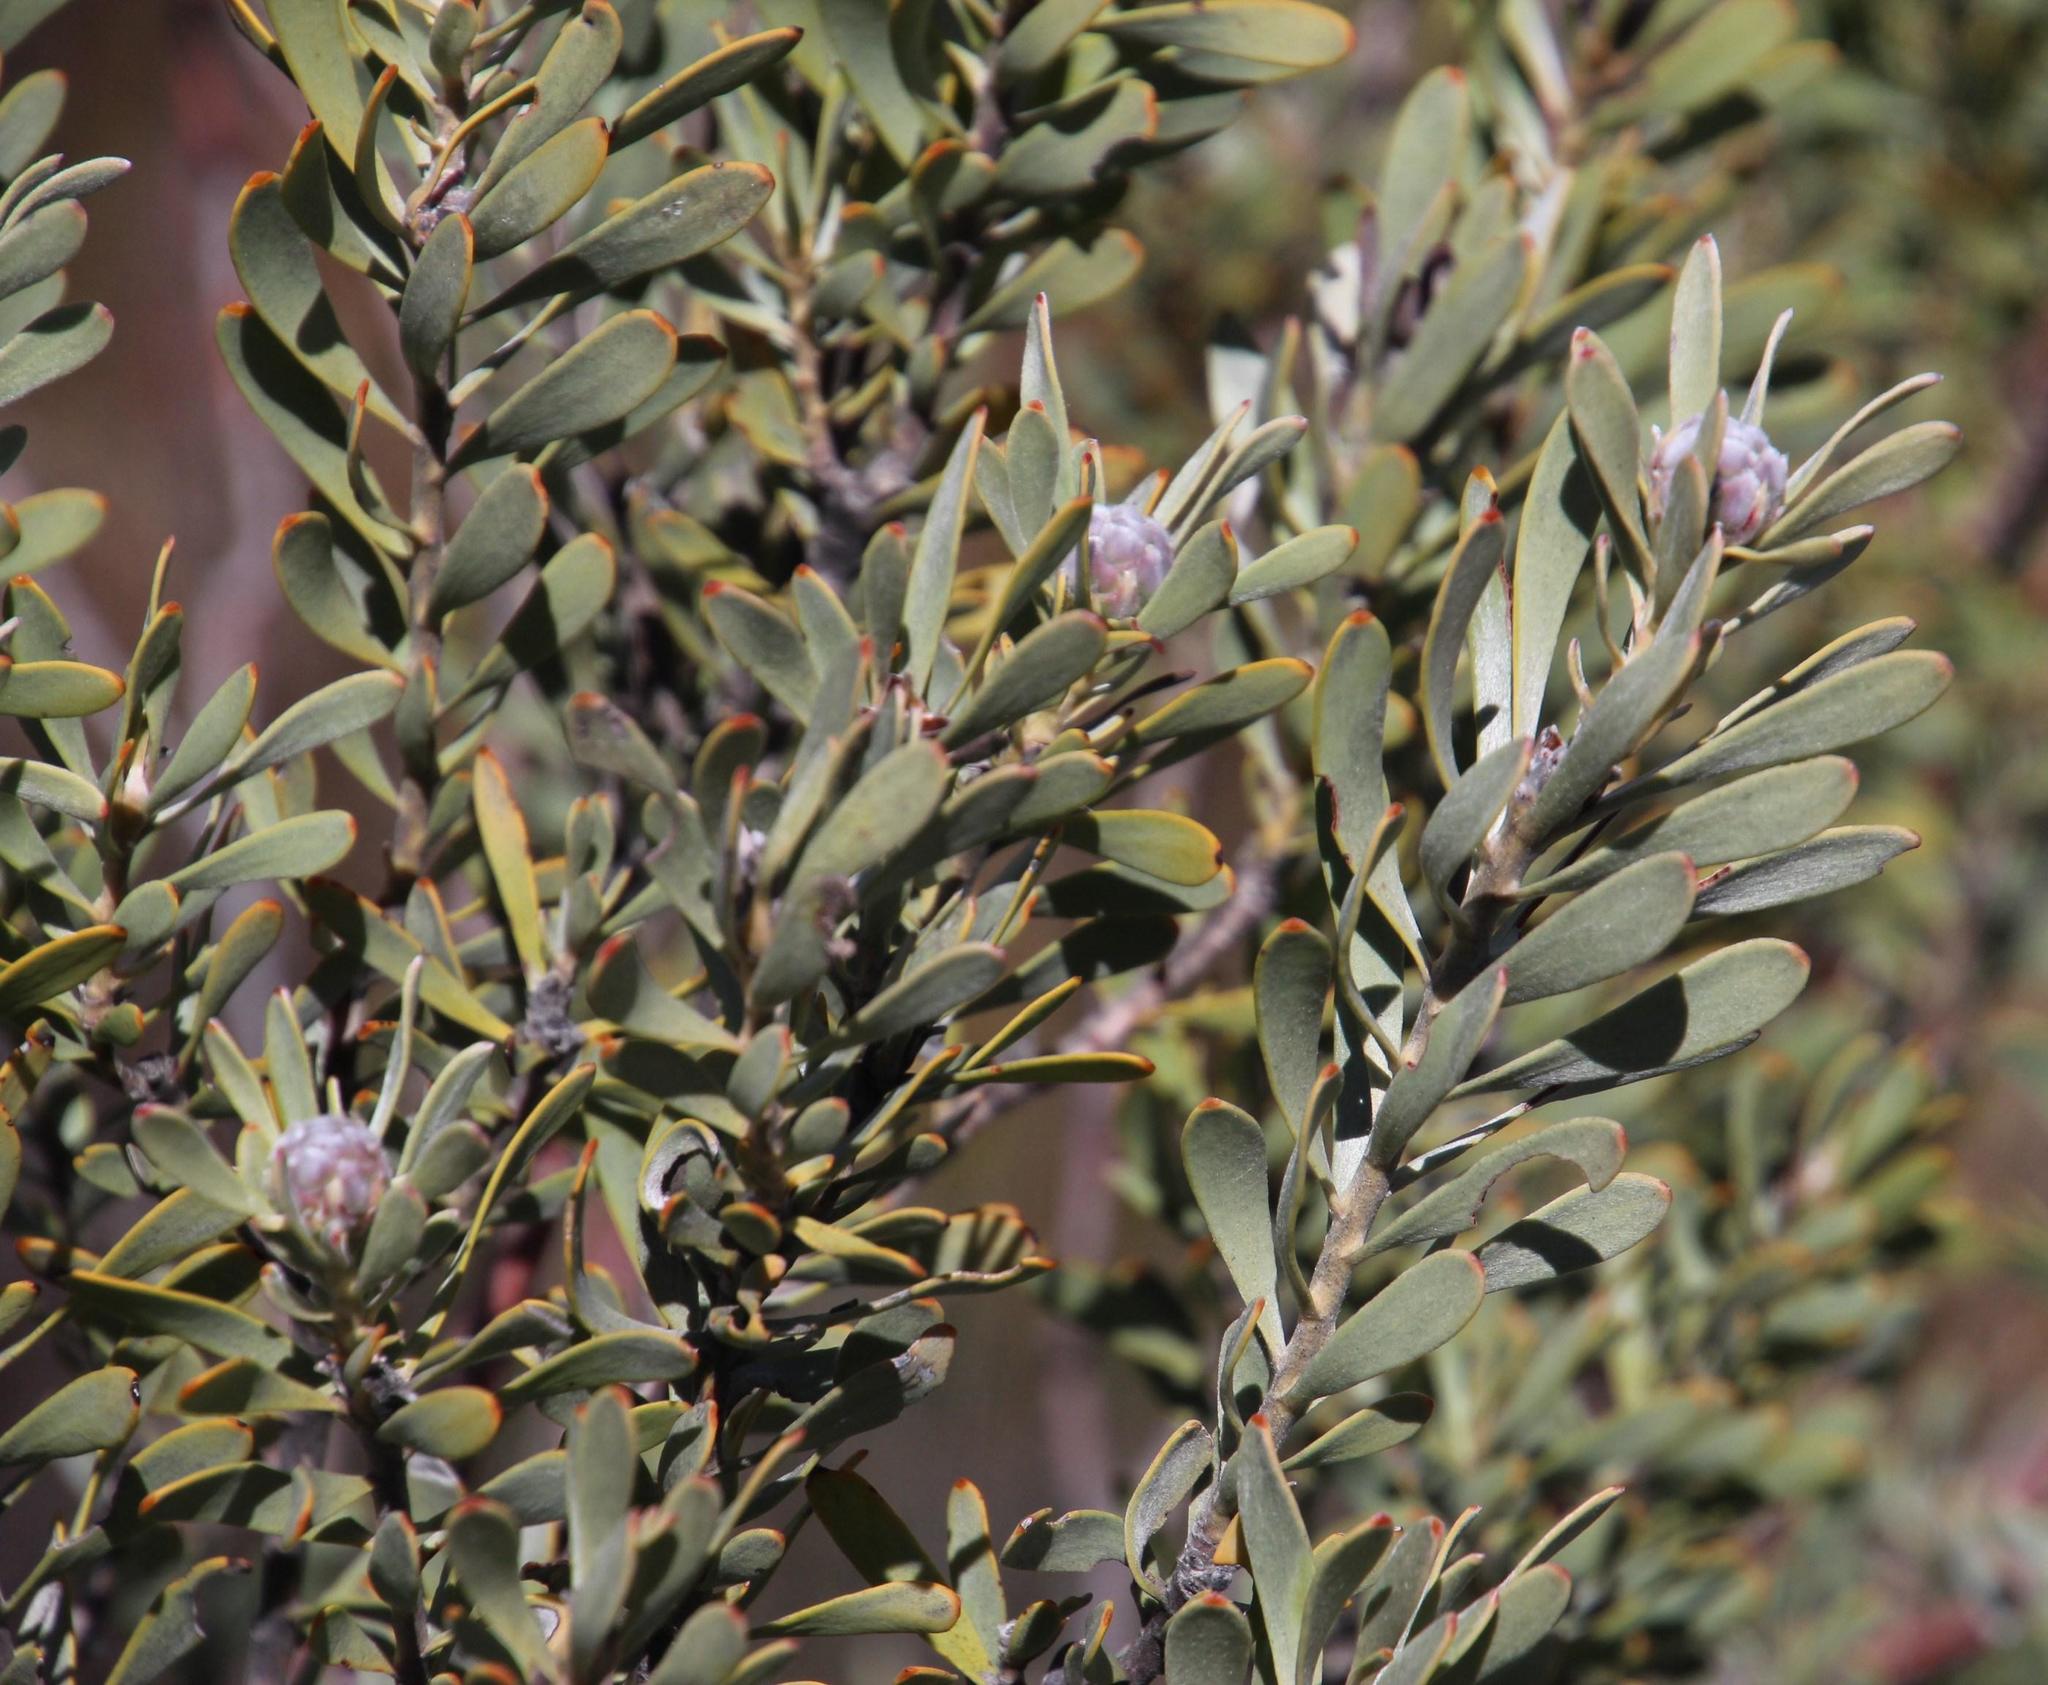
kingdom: Plantae
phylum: Tracheophyta
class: Magnoliopsida
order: Proteales
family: Proteaceae
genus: Leucadendron
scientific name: Leucadendron pubescens
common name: Grey conebush
